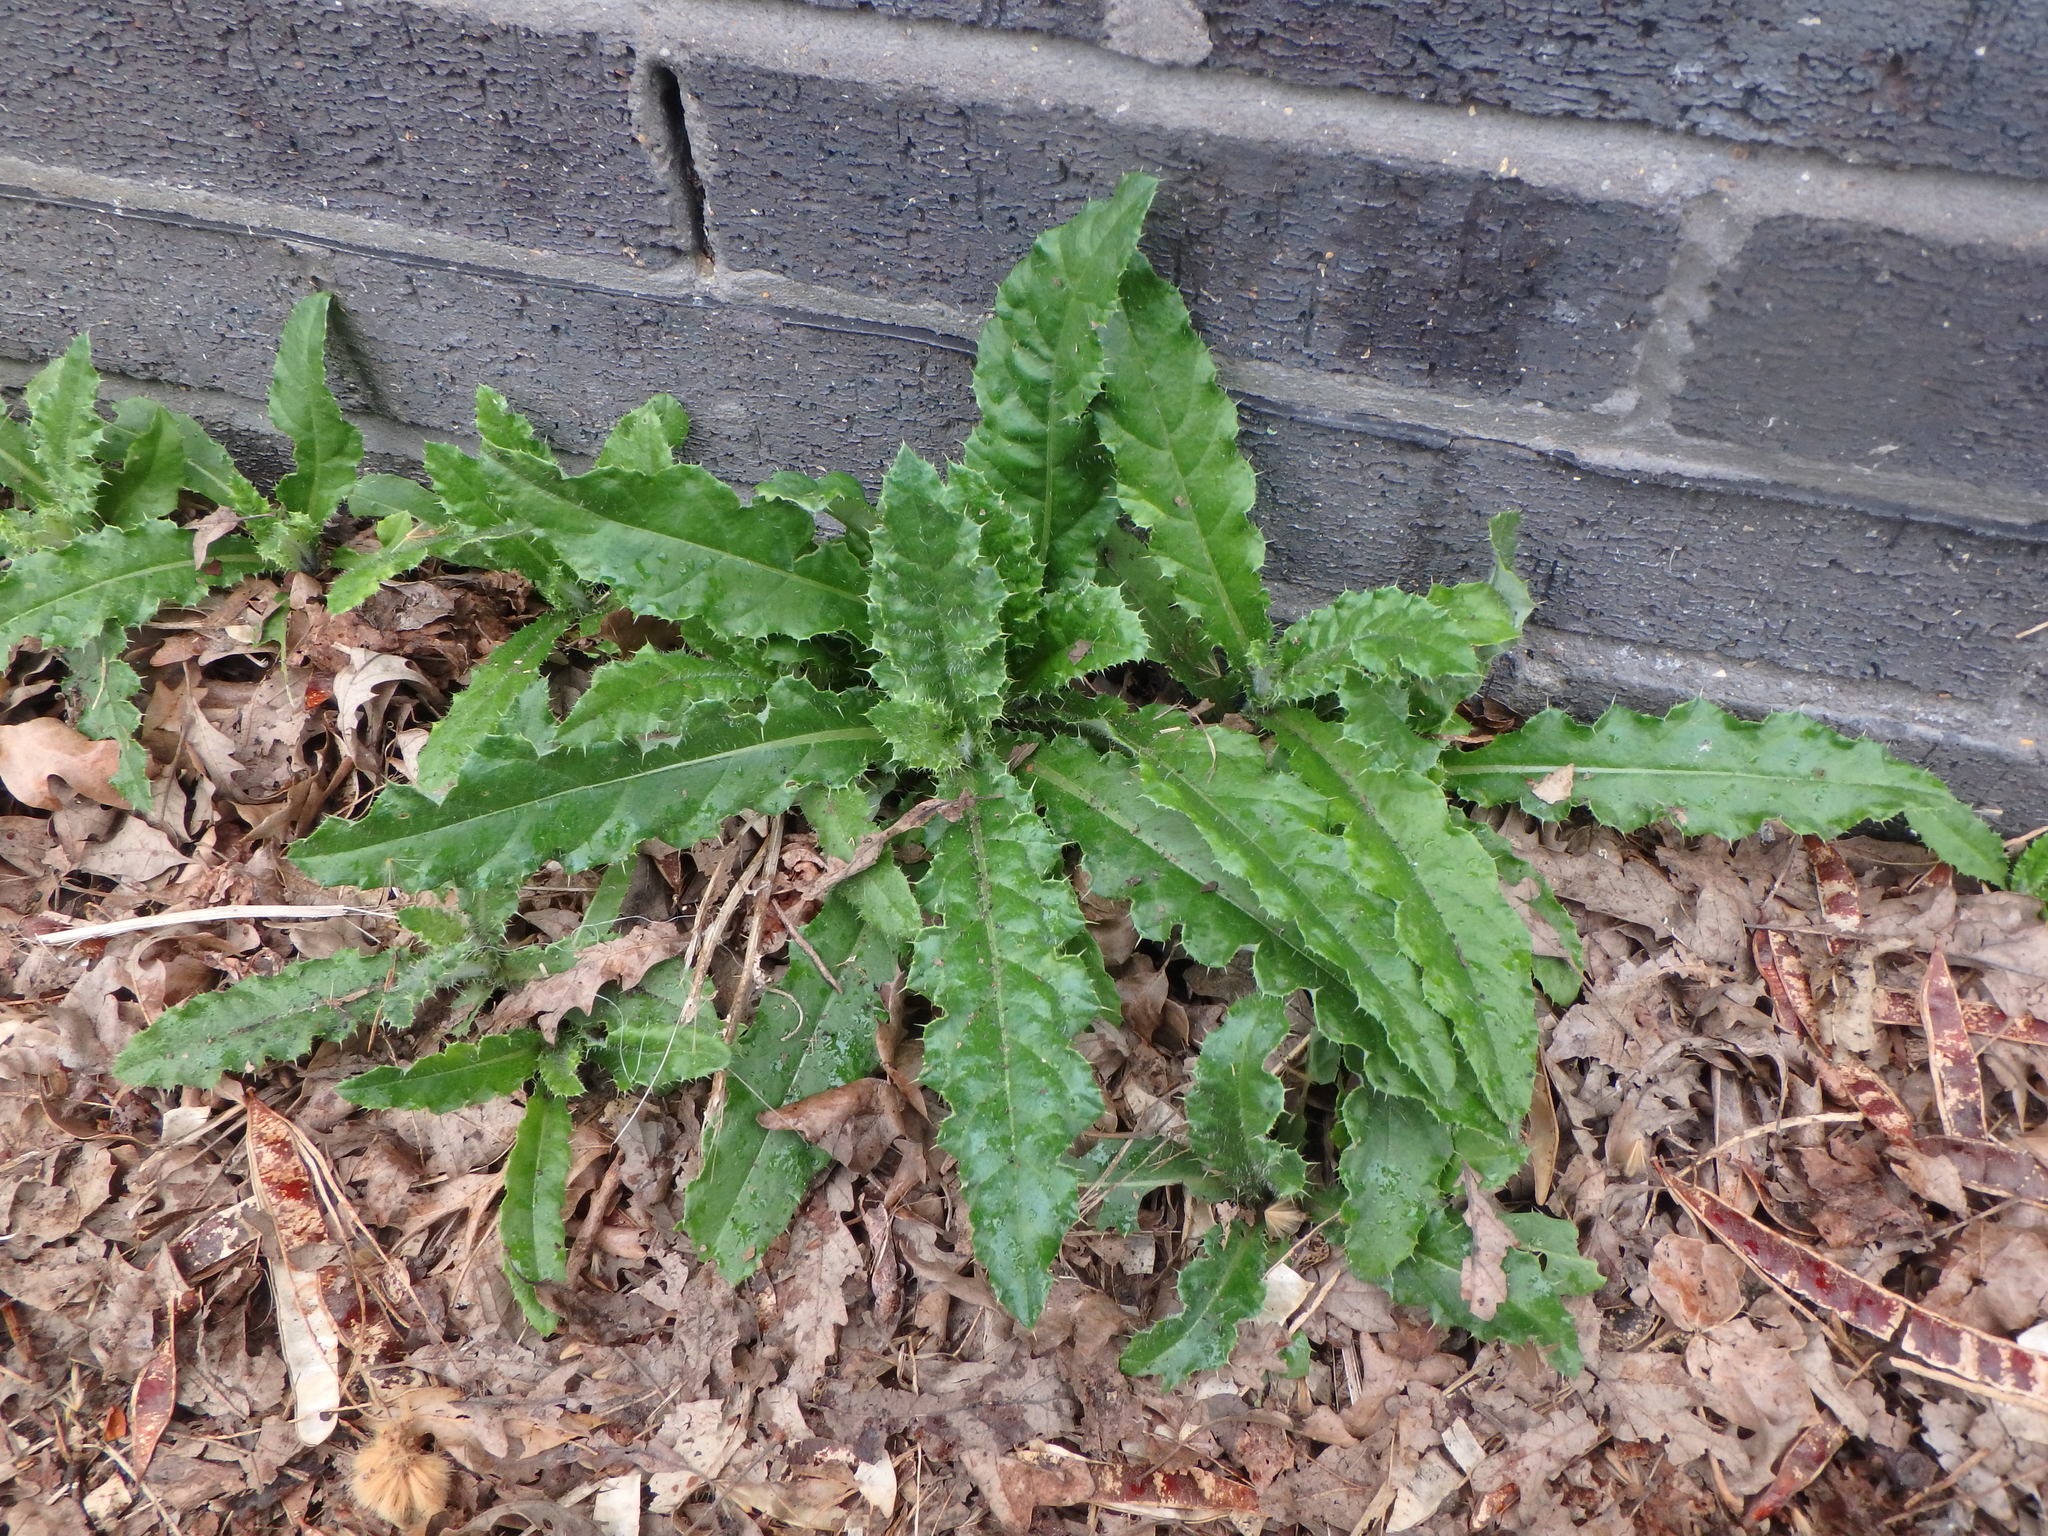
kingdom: Plantae
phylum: Tracheophyta
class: Magnoliopsida
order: Asterales
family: Asteraceae
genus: Cirsium
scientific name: Cirsium arvense
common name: Creeping thistle
